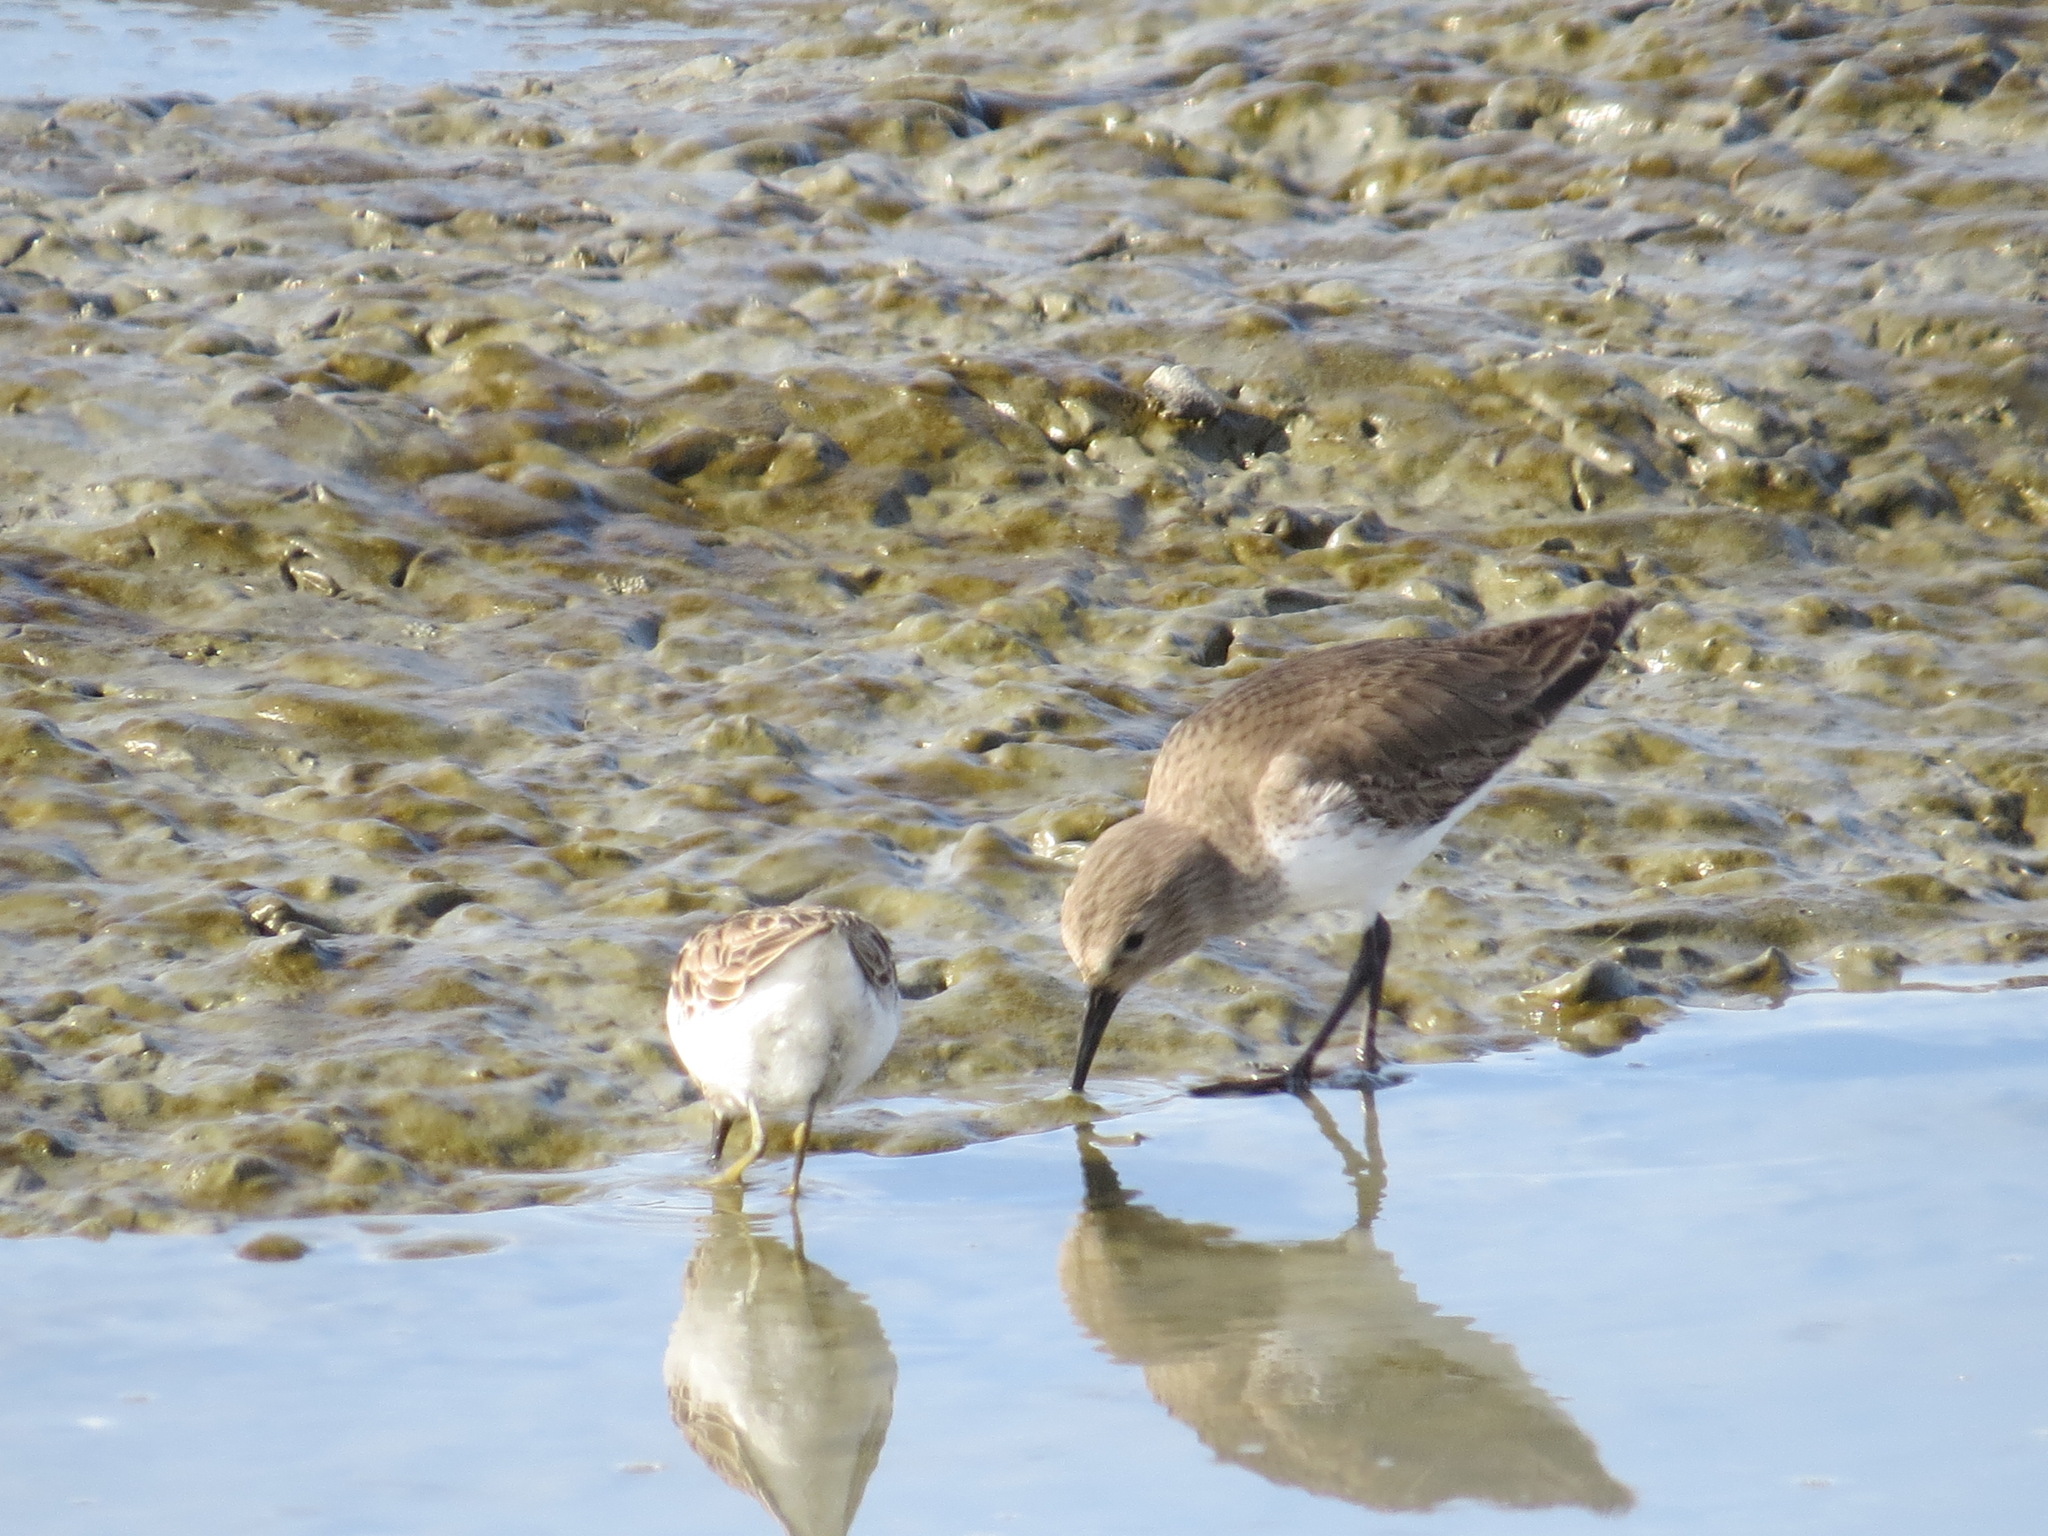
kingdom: Animalia
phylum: Chordata
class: Aves
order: Charadriiformes
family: Scolopacidae
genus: Calidris
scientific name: Calidris alpina
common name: Dunlin
